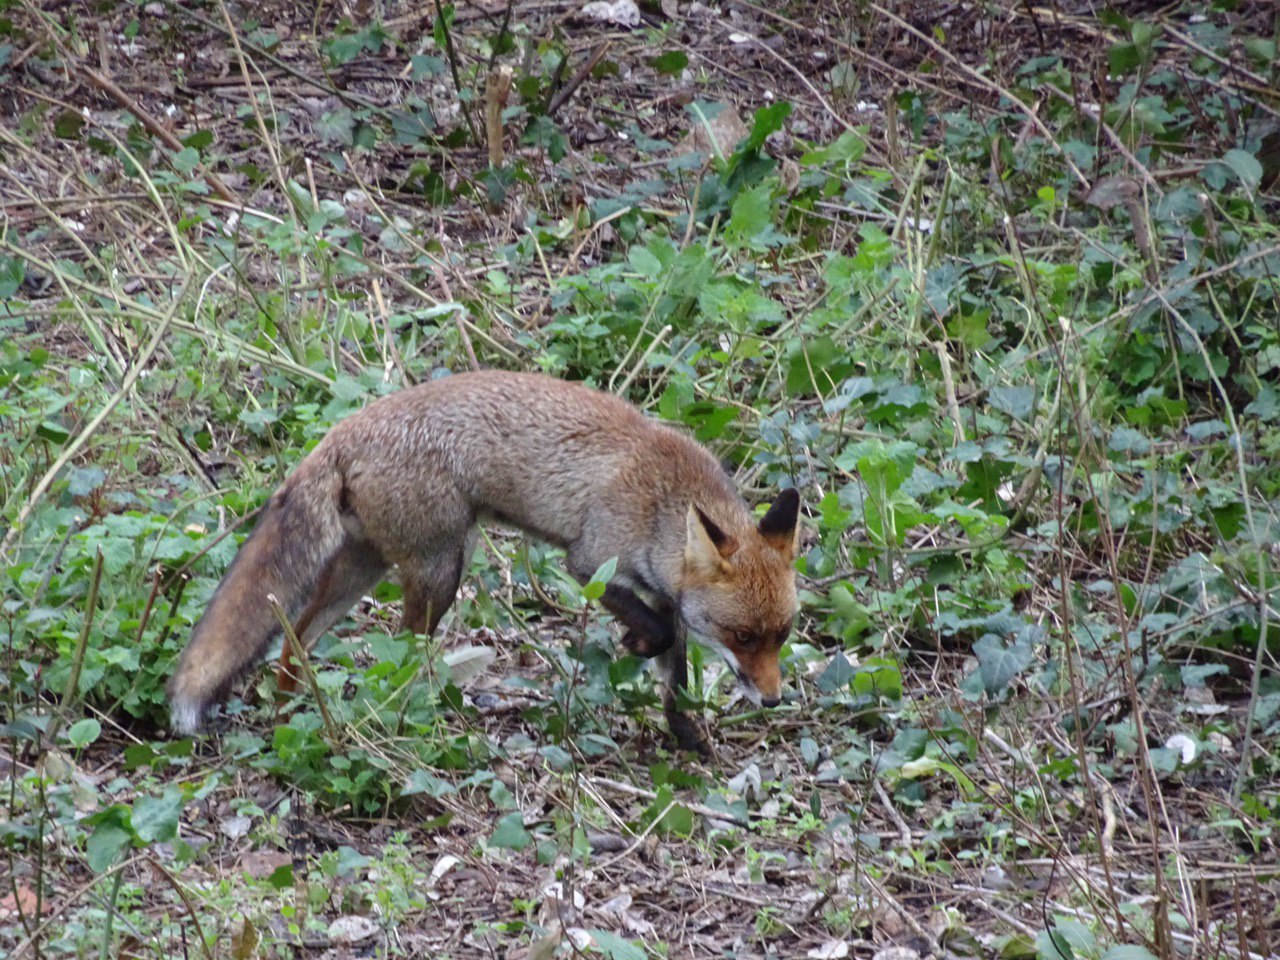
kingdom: Animalia
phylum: Chordata
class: Mammalia
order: Carnivora
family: Canidae
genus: Vulpes
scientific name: Vulpes vulpes
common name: Red fox
